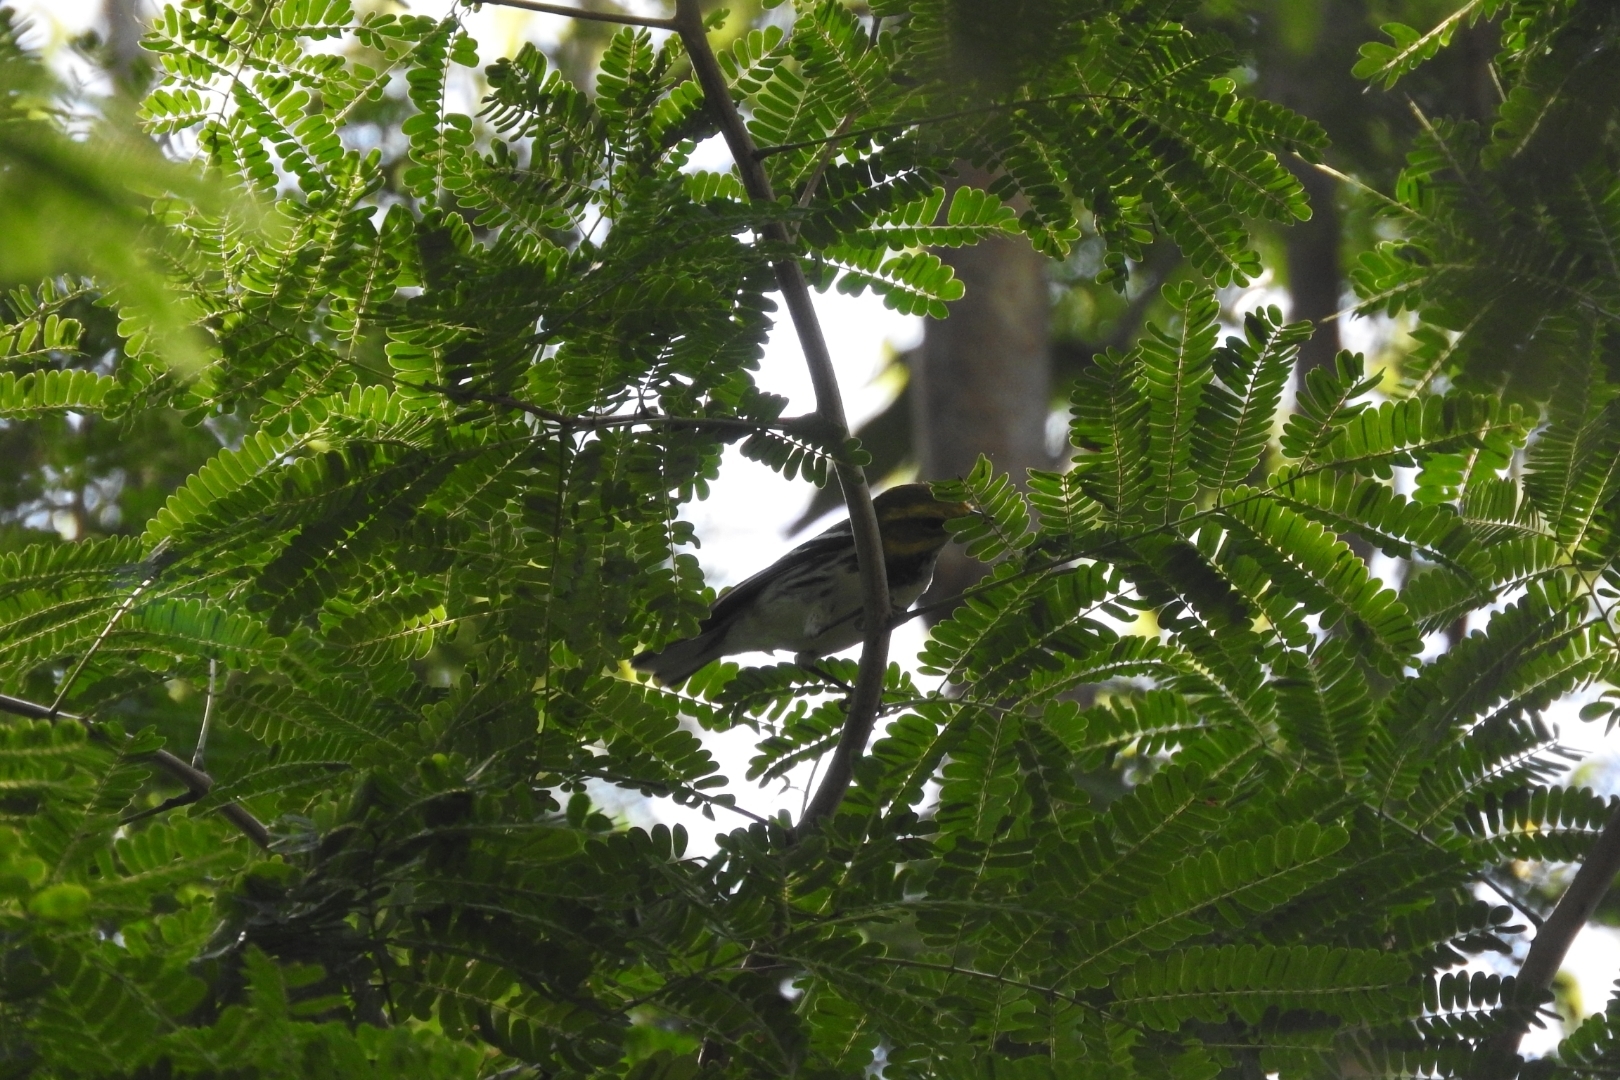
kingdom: Animalia
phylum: Chordata
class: Aves
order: Passeriformes
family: Parulidae
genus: Setophaga
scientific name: Setophaga virens
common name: Black-throated green warbler
